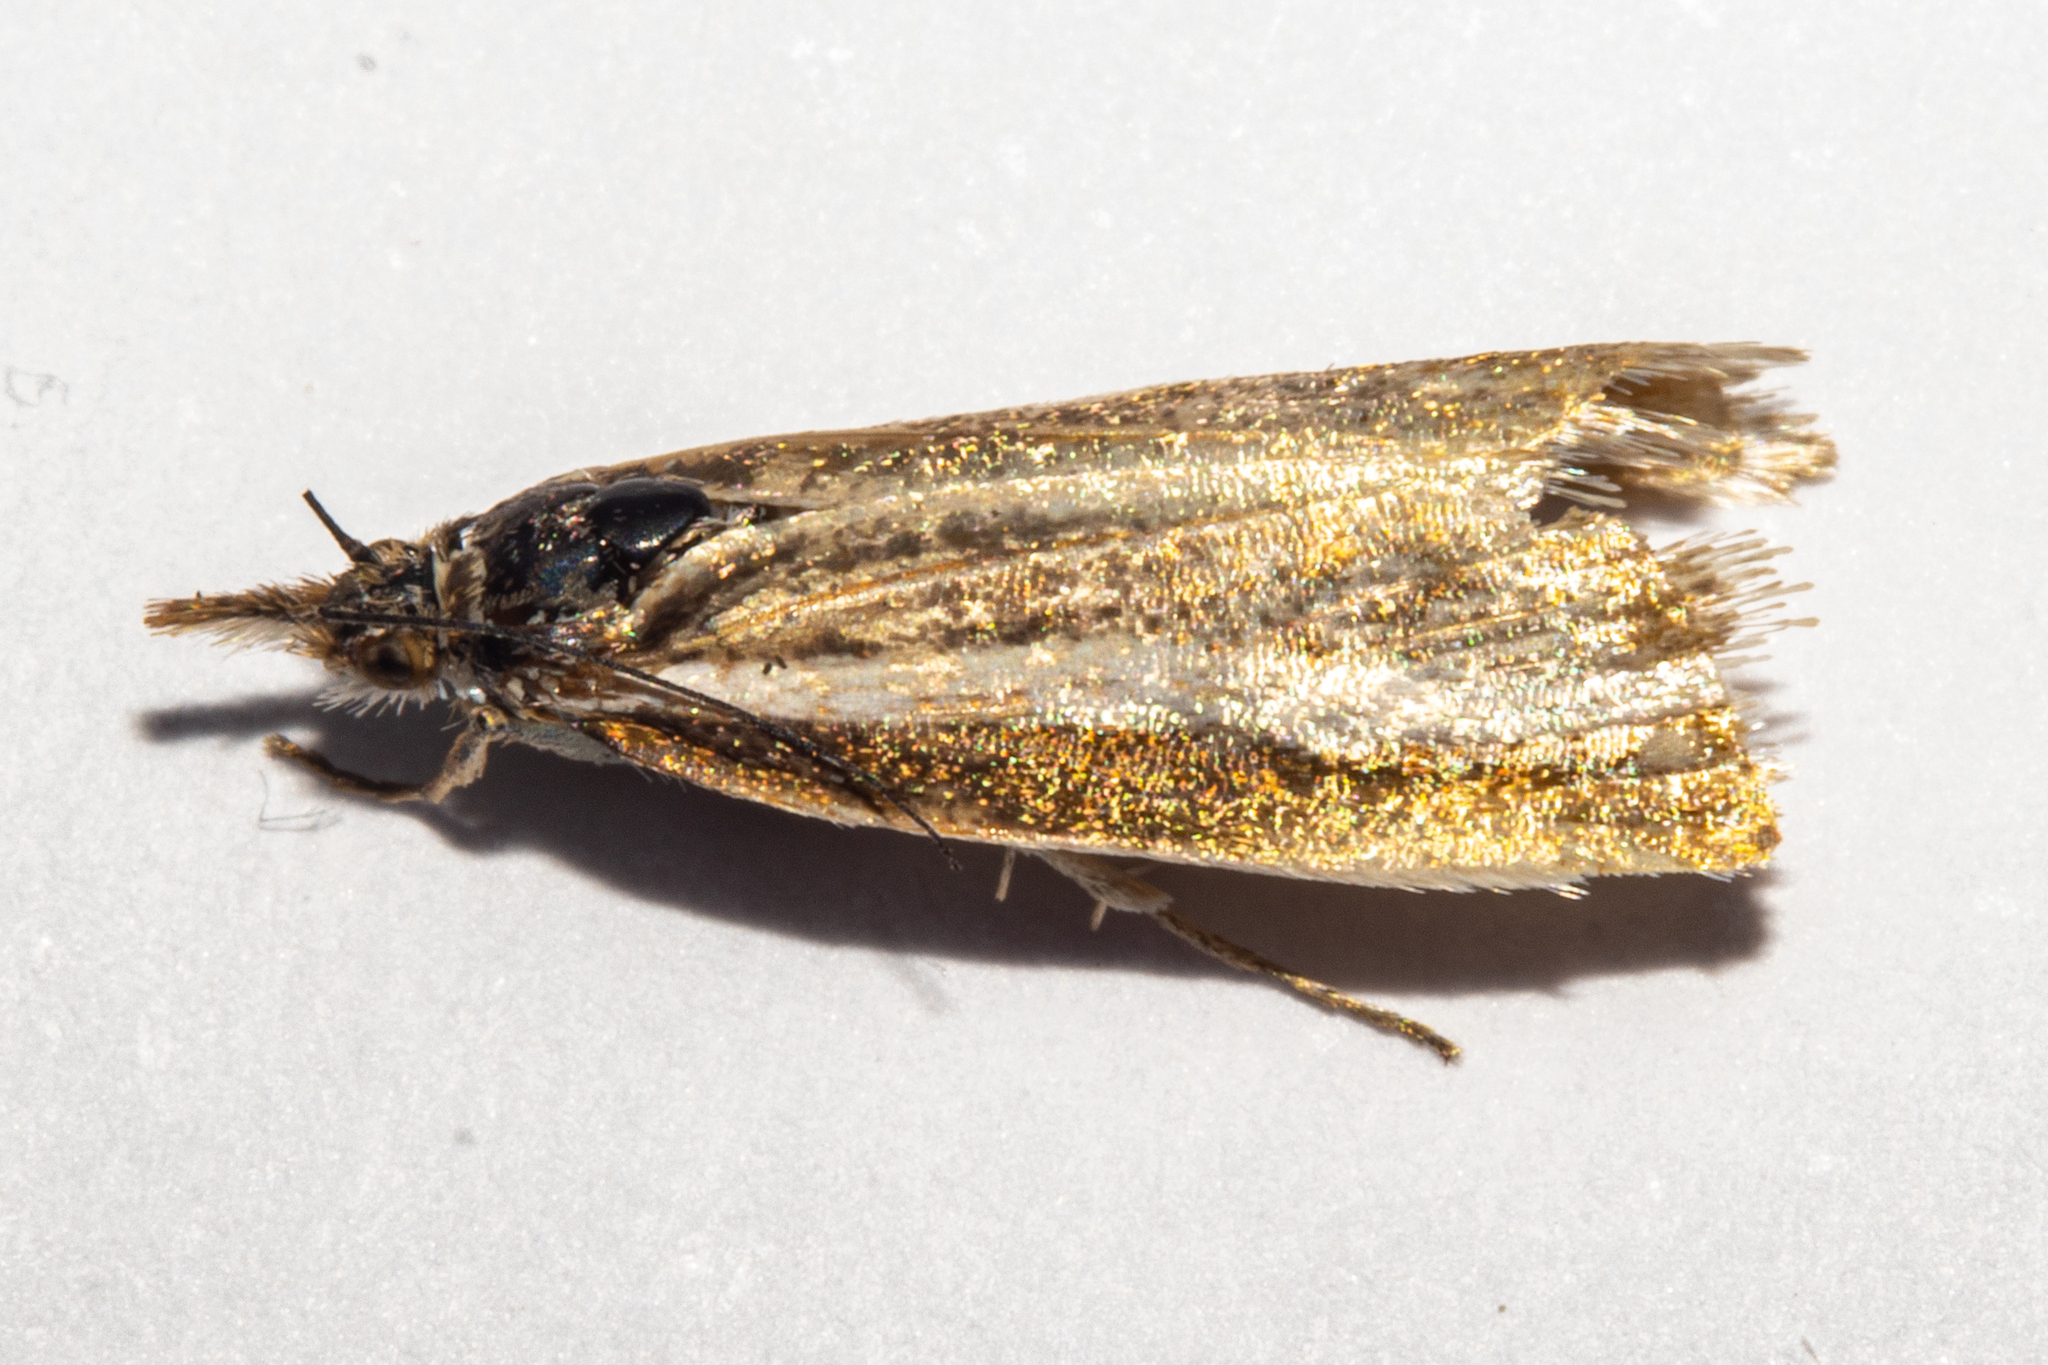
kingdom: Animalia
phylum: Arthropoda
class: Insecta
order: Lepidoptera
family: Crambidae
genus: Orocrambus
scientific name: Orocrambus aethonellus
